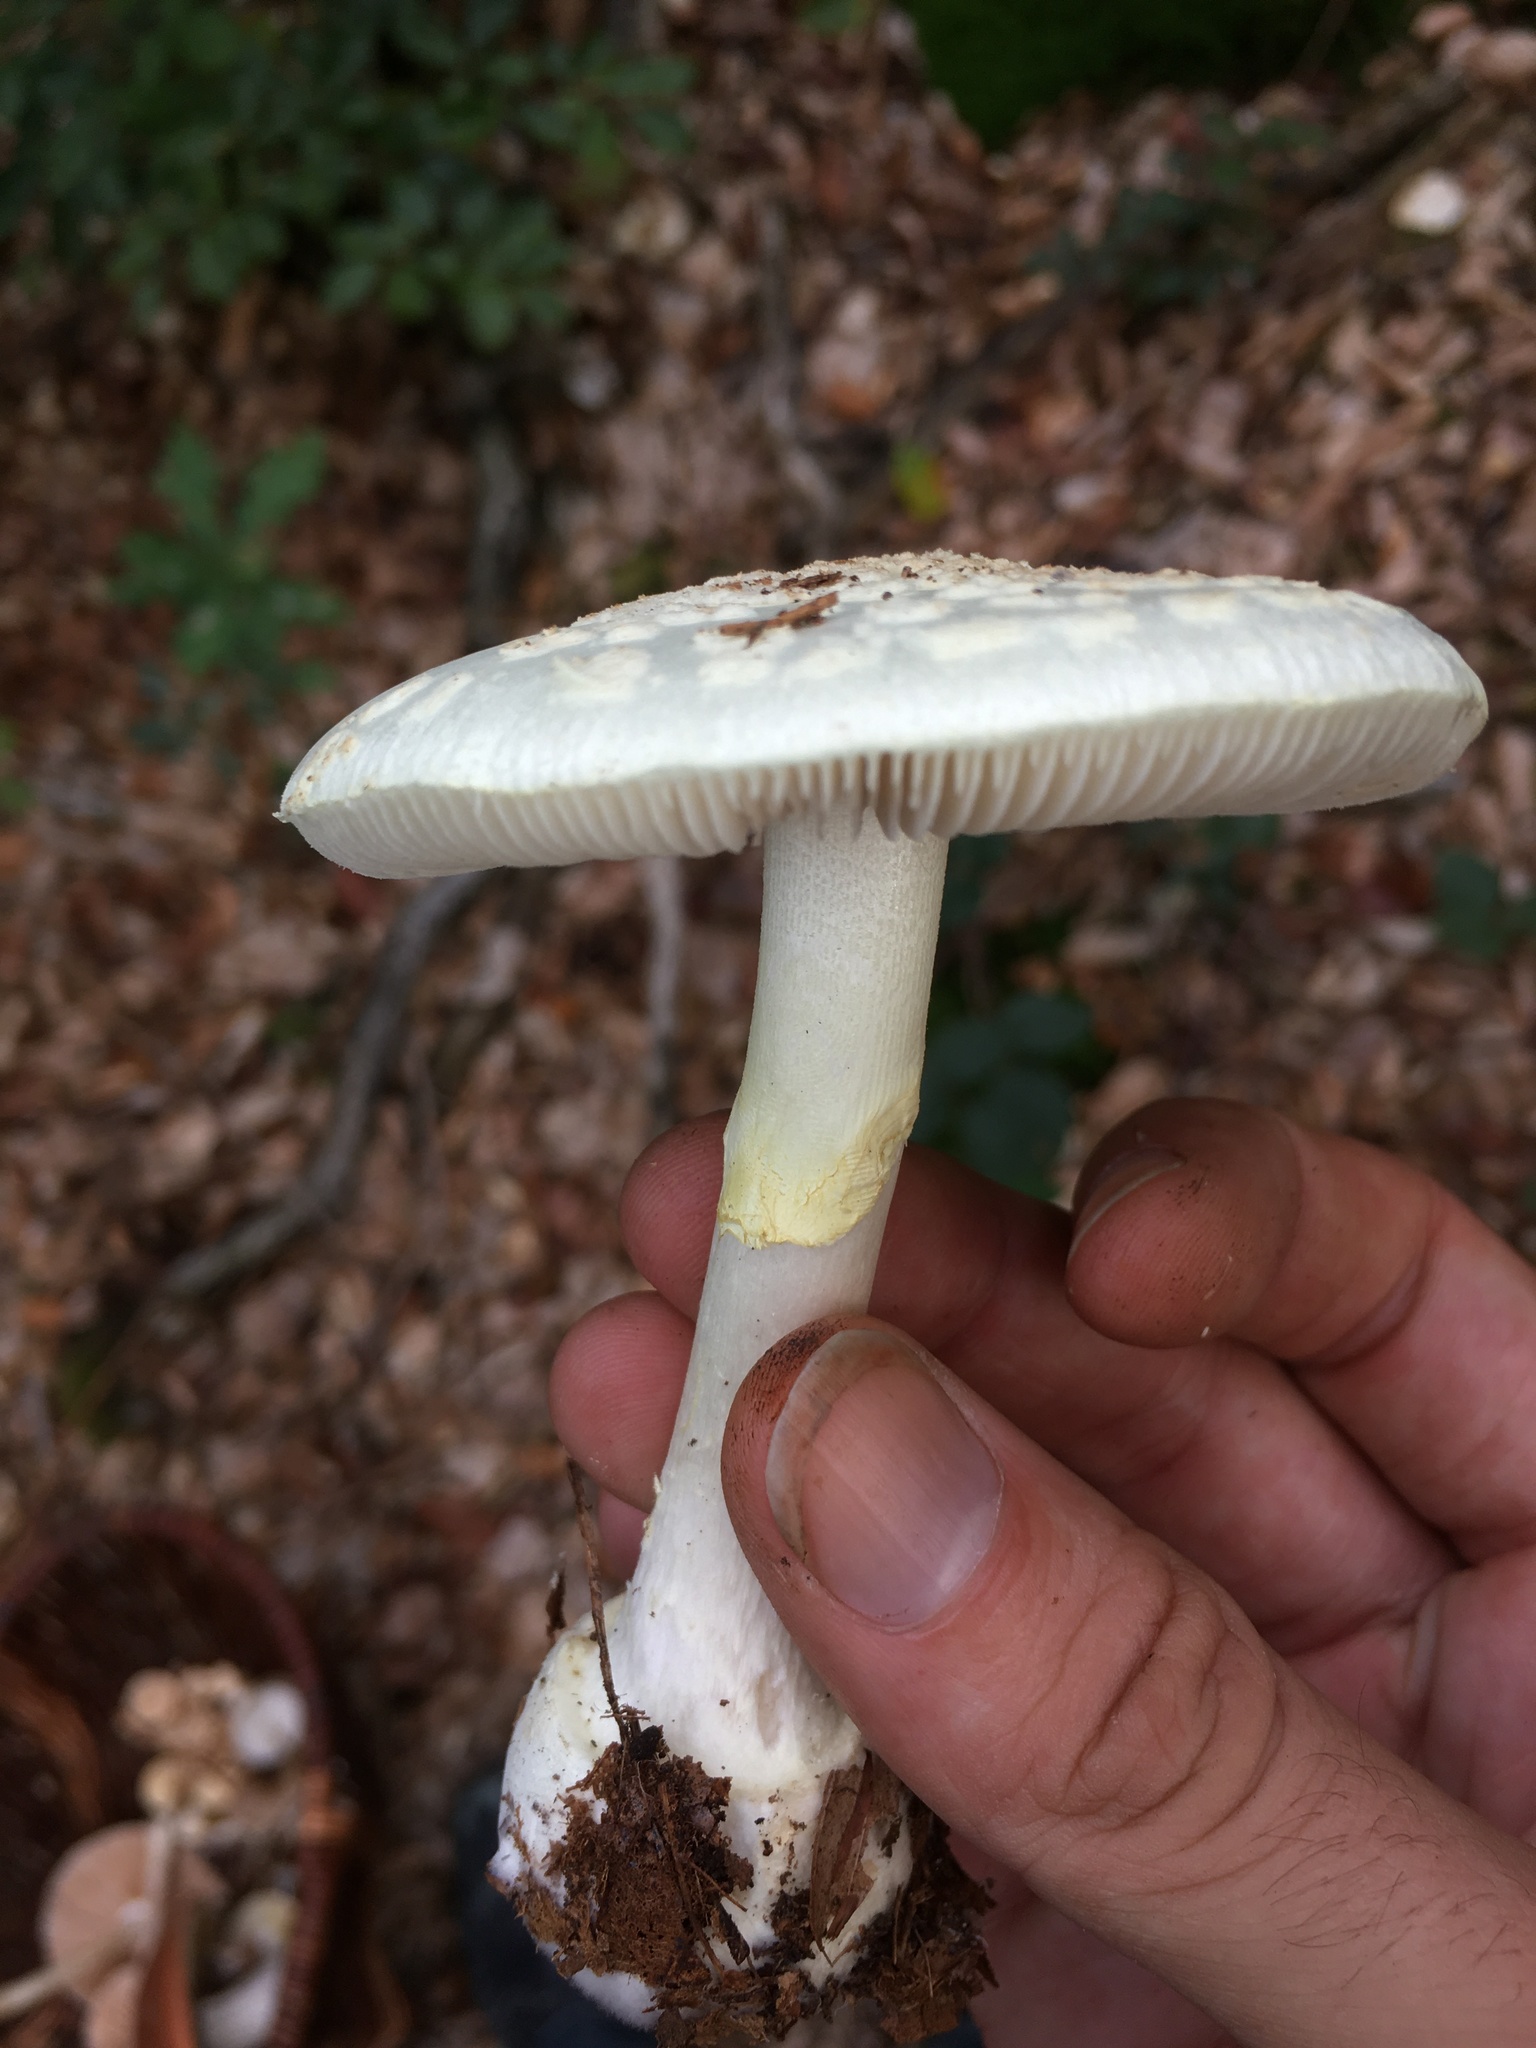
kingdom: Fungi
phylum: Basidiomycota
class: Agaricomycetes
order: Agaricales
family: Amanitaceae
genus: Amanita
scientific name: Amanita citrina
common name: False death-cap
